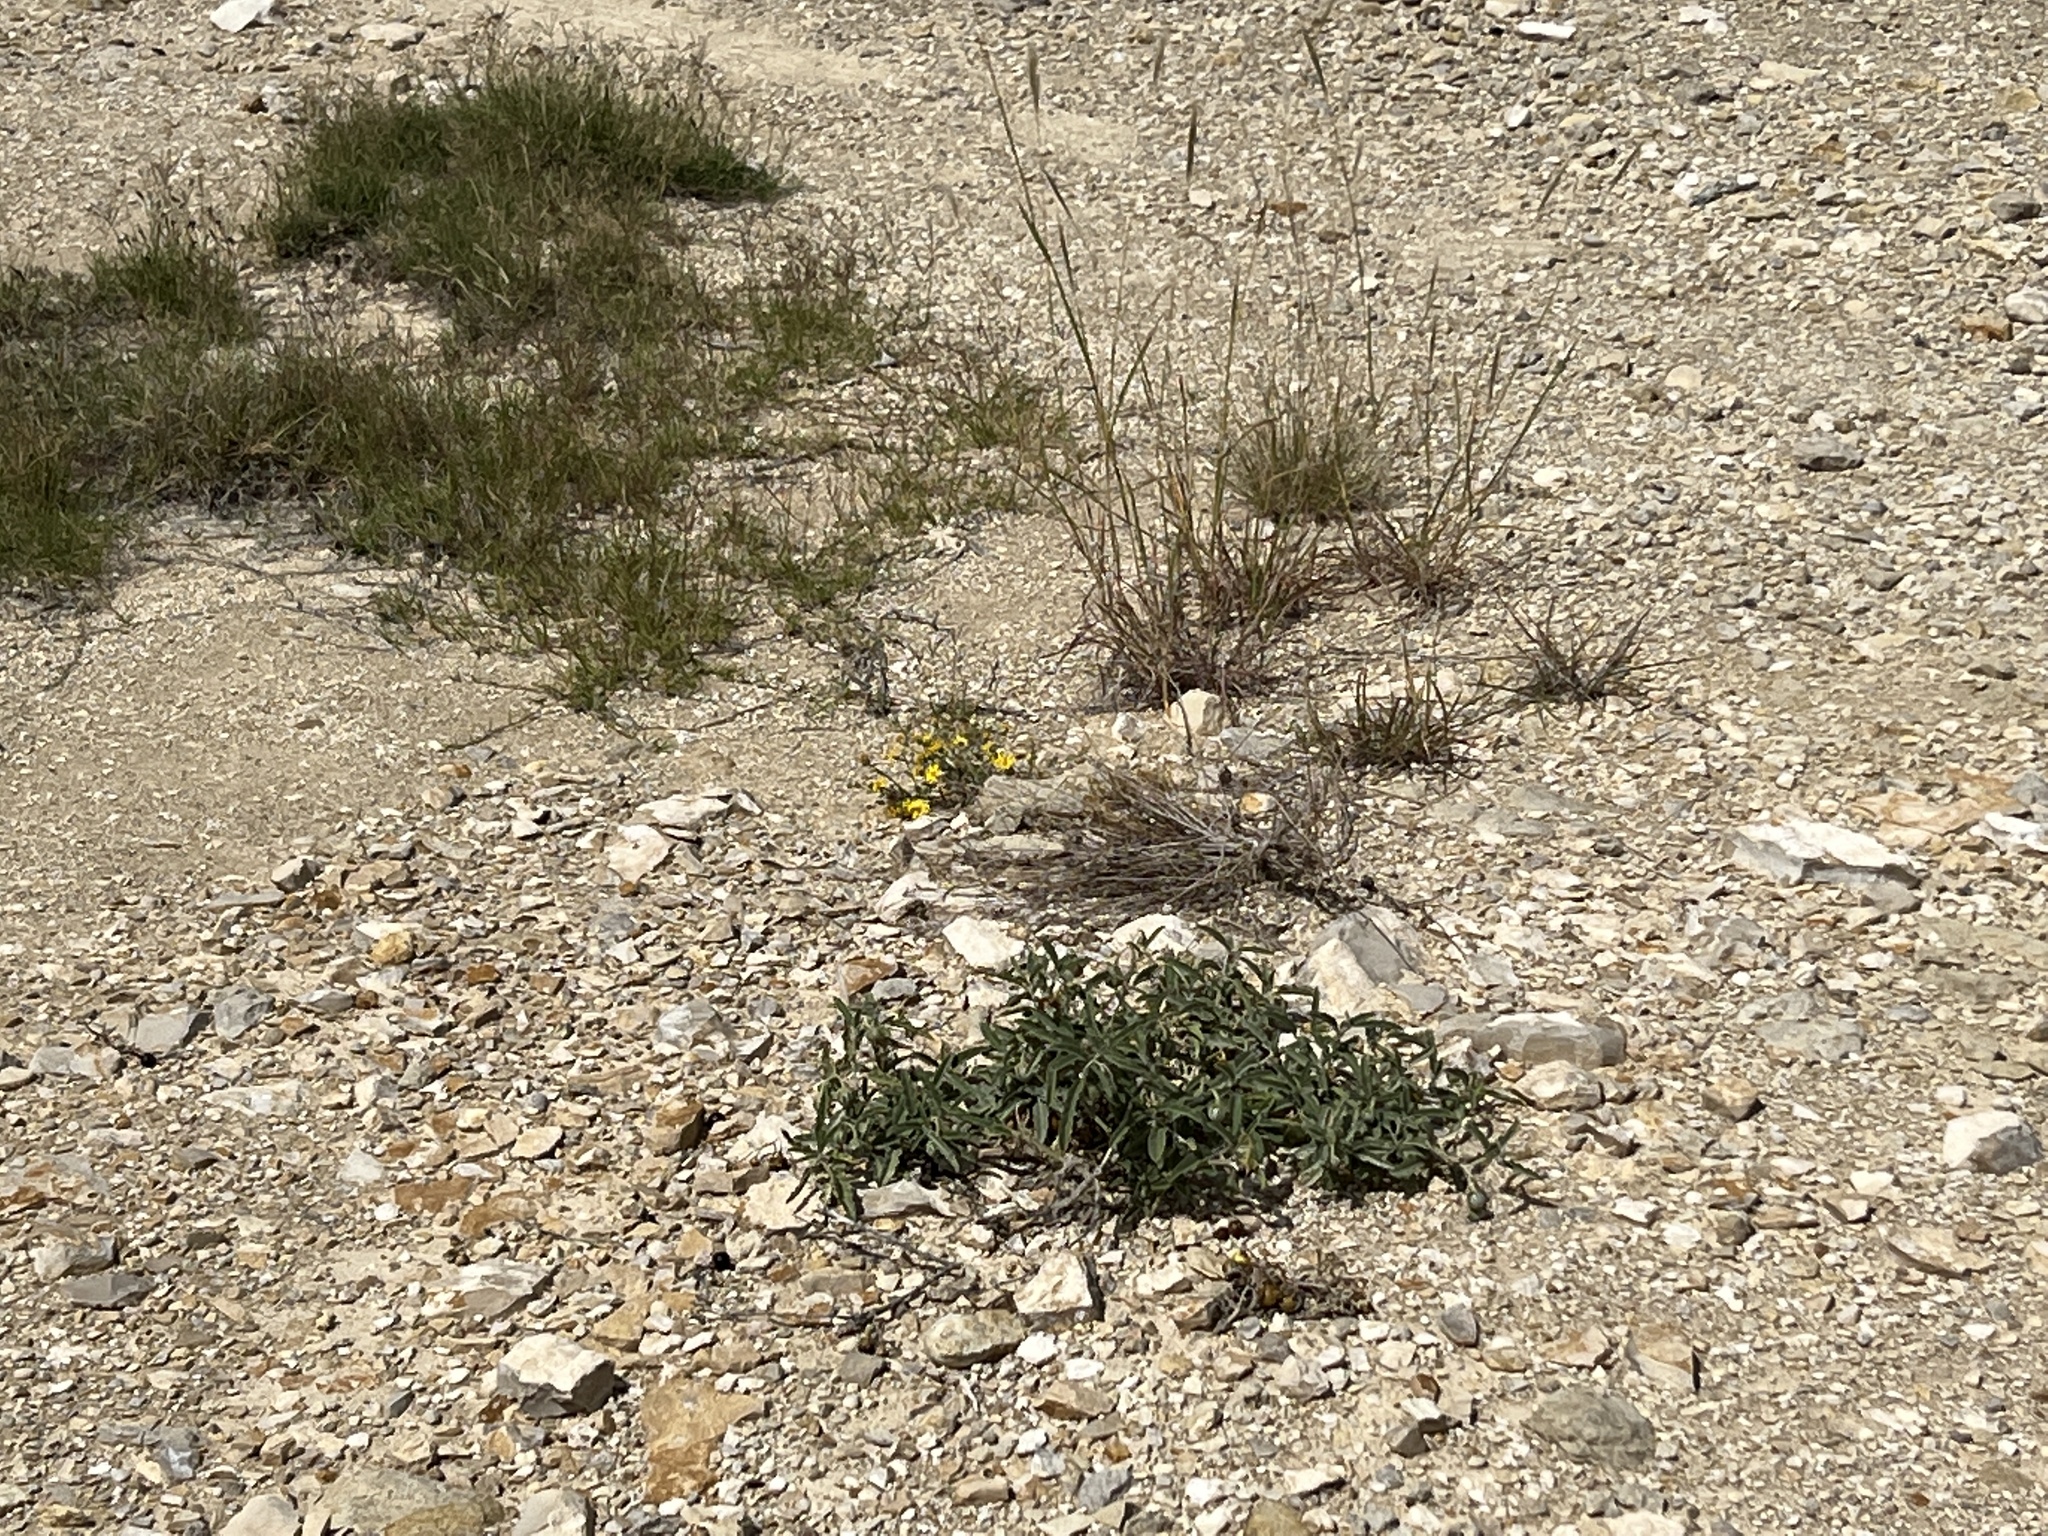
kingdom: Plantae
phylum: Tracheophyta
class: Magnoliopsida
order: Solanales
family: Solanaceae
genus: Solanum
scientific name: Solanum elaeagnifolium
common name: Silverleaf nightshade
